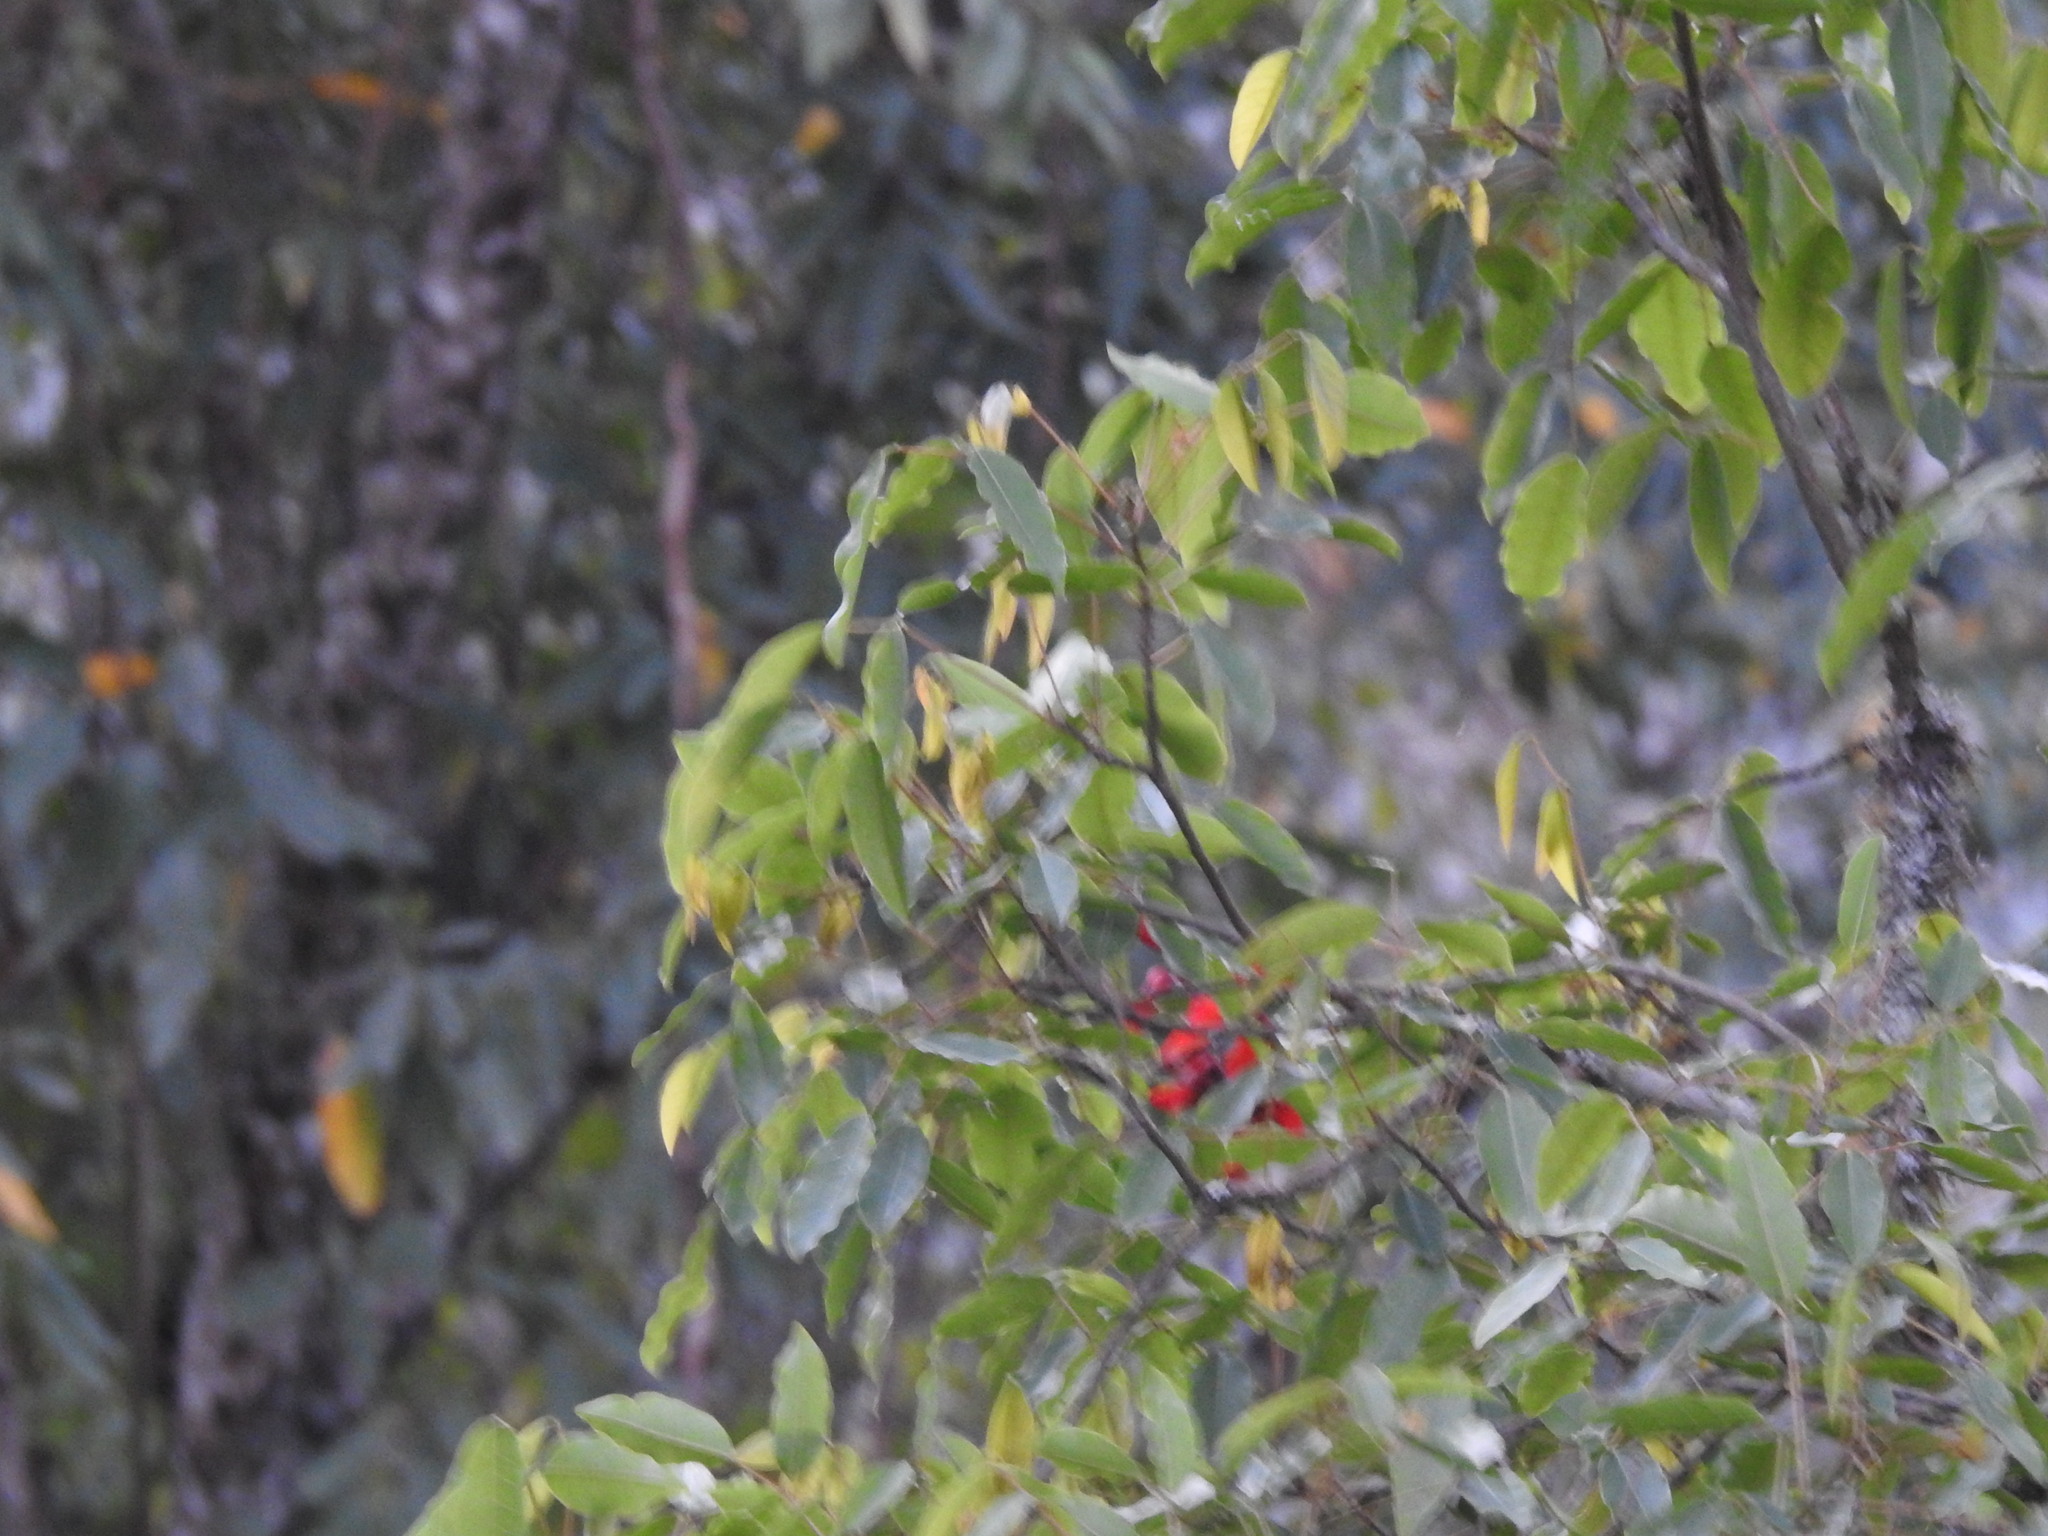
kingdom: Plantae
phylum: Tracheophyta
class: Magnoliopsida
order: Fabales
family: Fabaceae
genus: Erythrina
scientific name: Erythrina falcata
